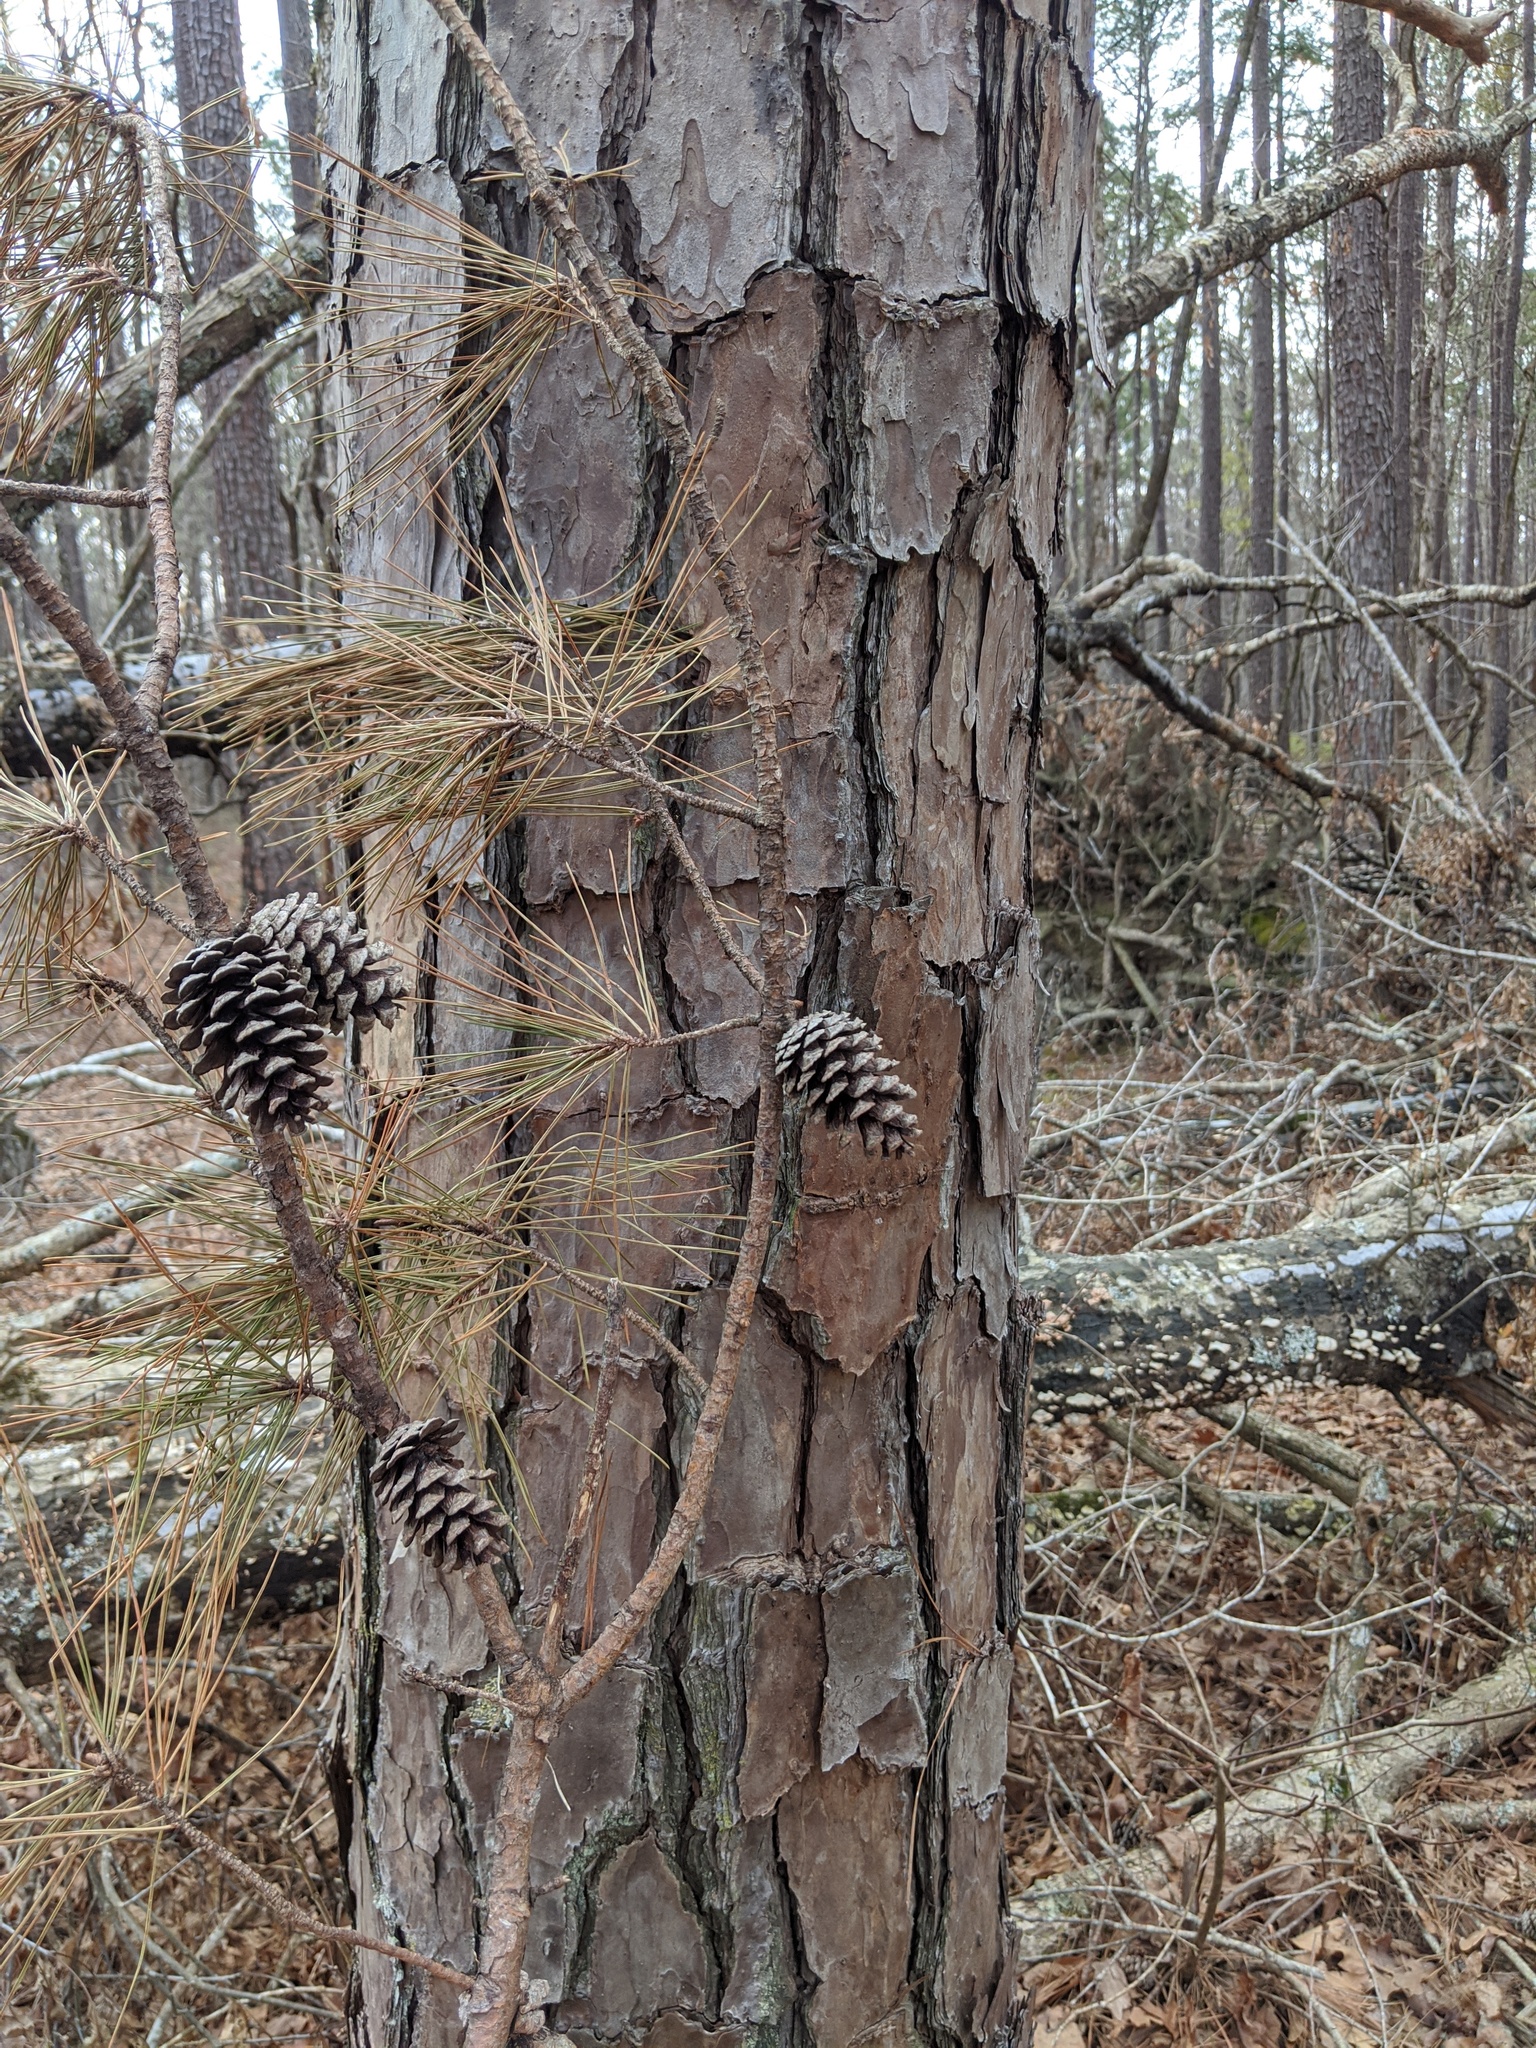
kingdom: Plantae
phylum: Tracheophyta
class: Pinopsida
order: Pinales
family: Pinaceae
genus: Pinus
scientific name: Pinus echinata
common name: Shortleaf pine
